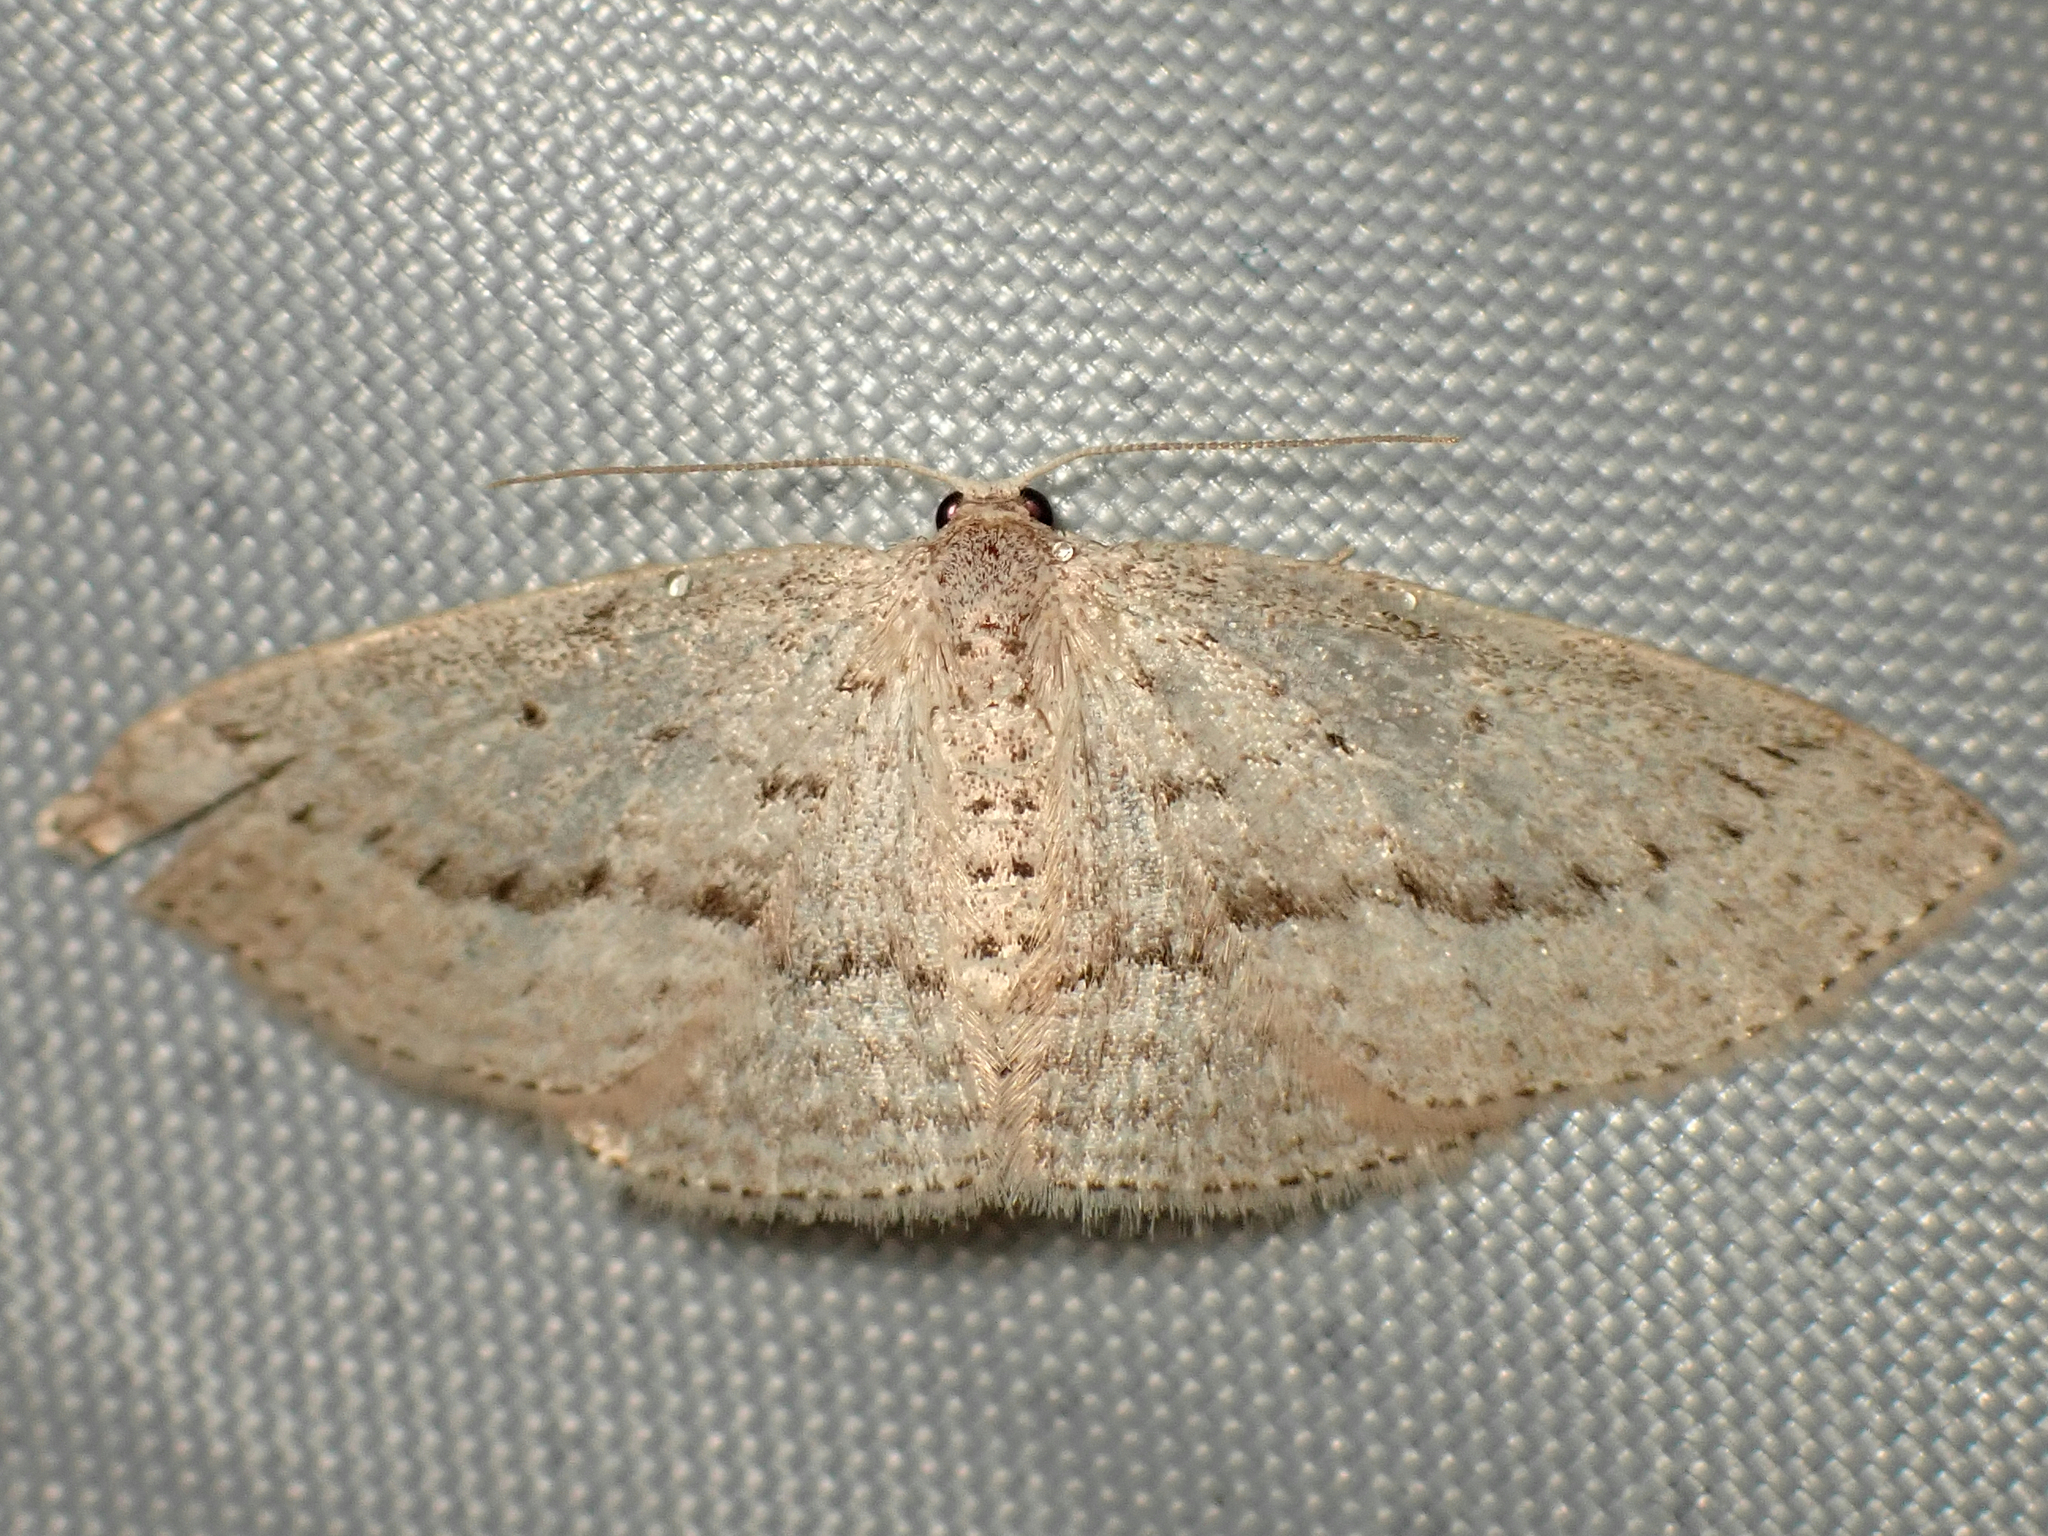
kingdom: Animalia
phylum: Arthropoda
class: Insecta
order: Lepidoptera
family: Geometridae
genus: Poecilasthena
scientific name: Poecilasthena schistaria
